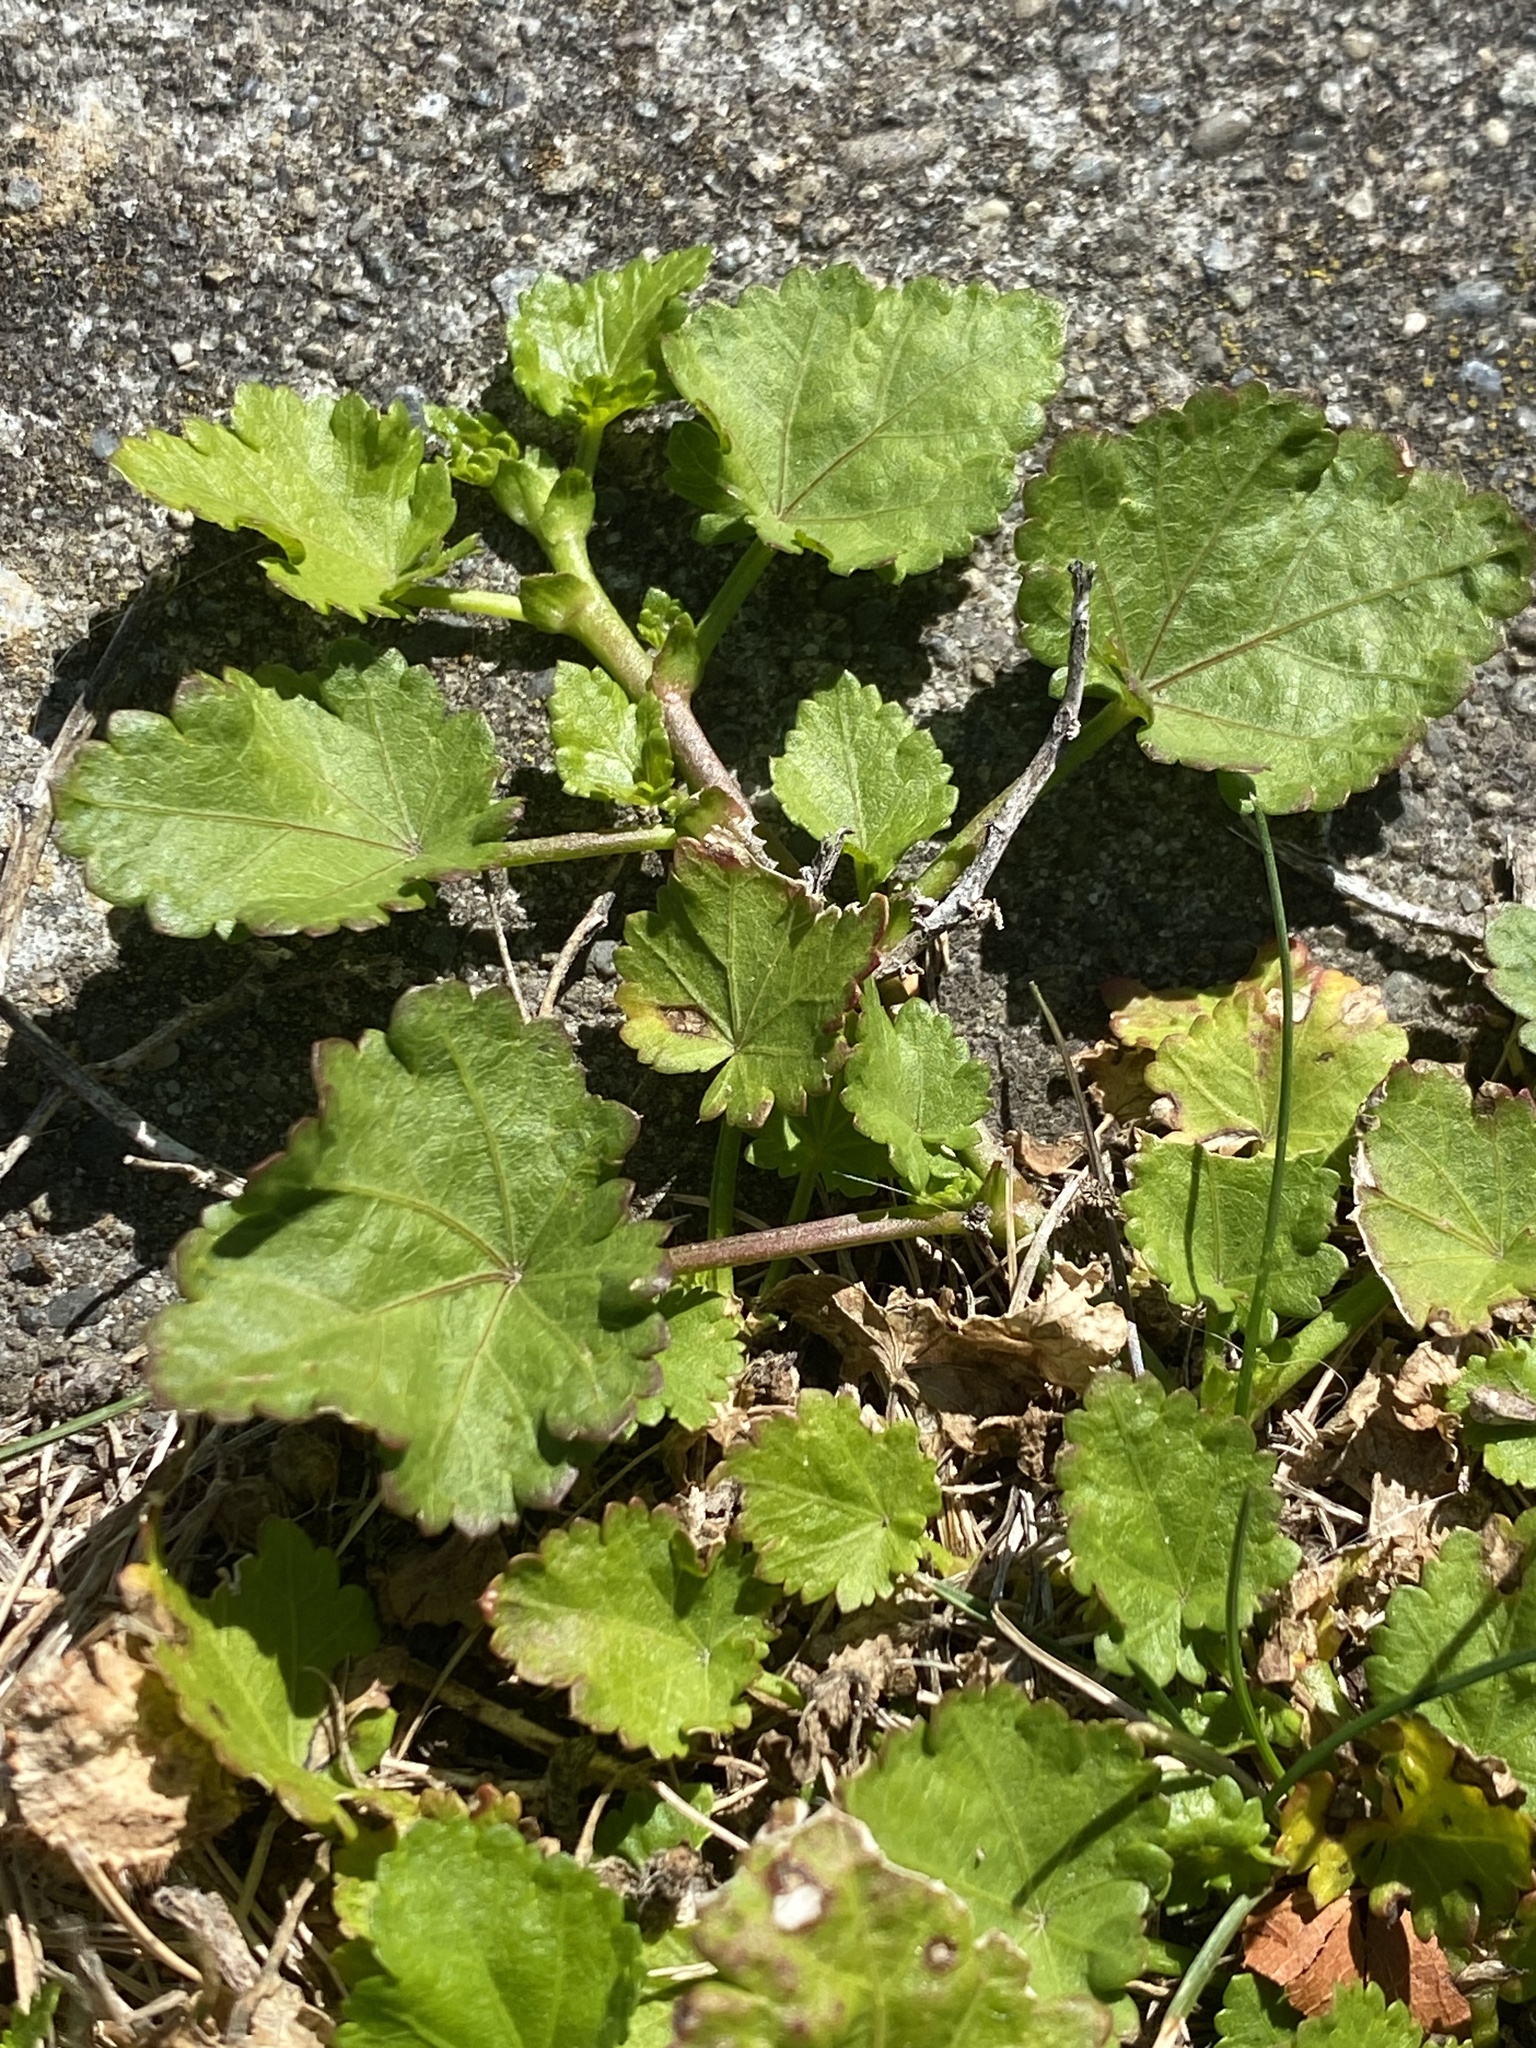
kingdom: Plantae
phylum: Tracheophyta
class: Magnoliopsida
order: Malvales
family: Malvaceae
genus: Modiola
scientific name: Modiola caroliniana
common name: Carolina bristlemallow
